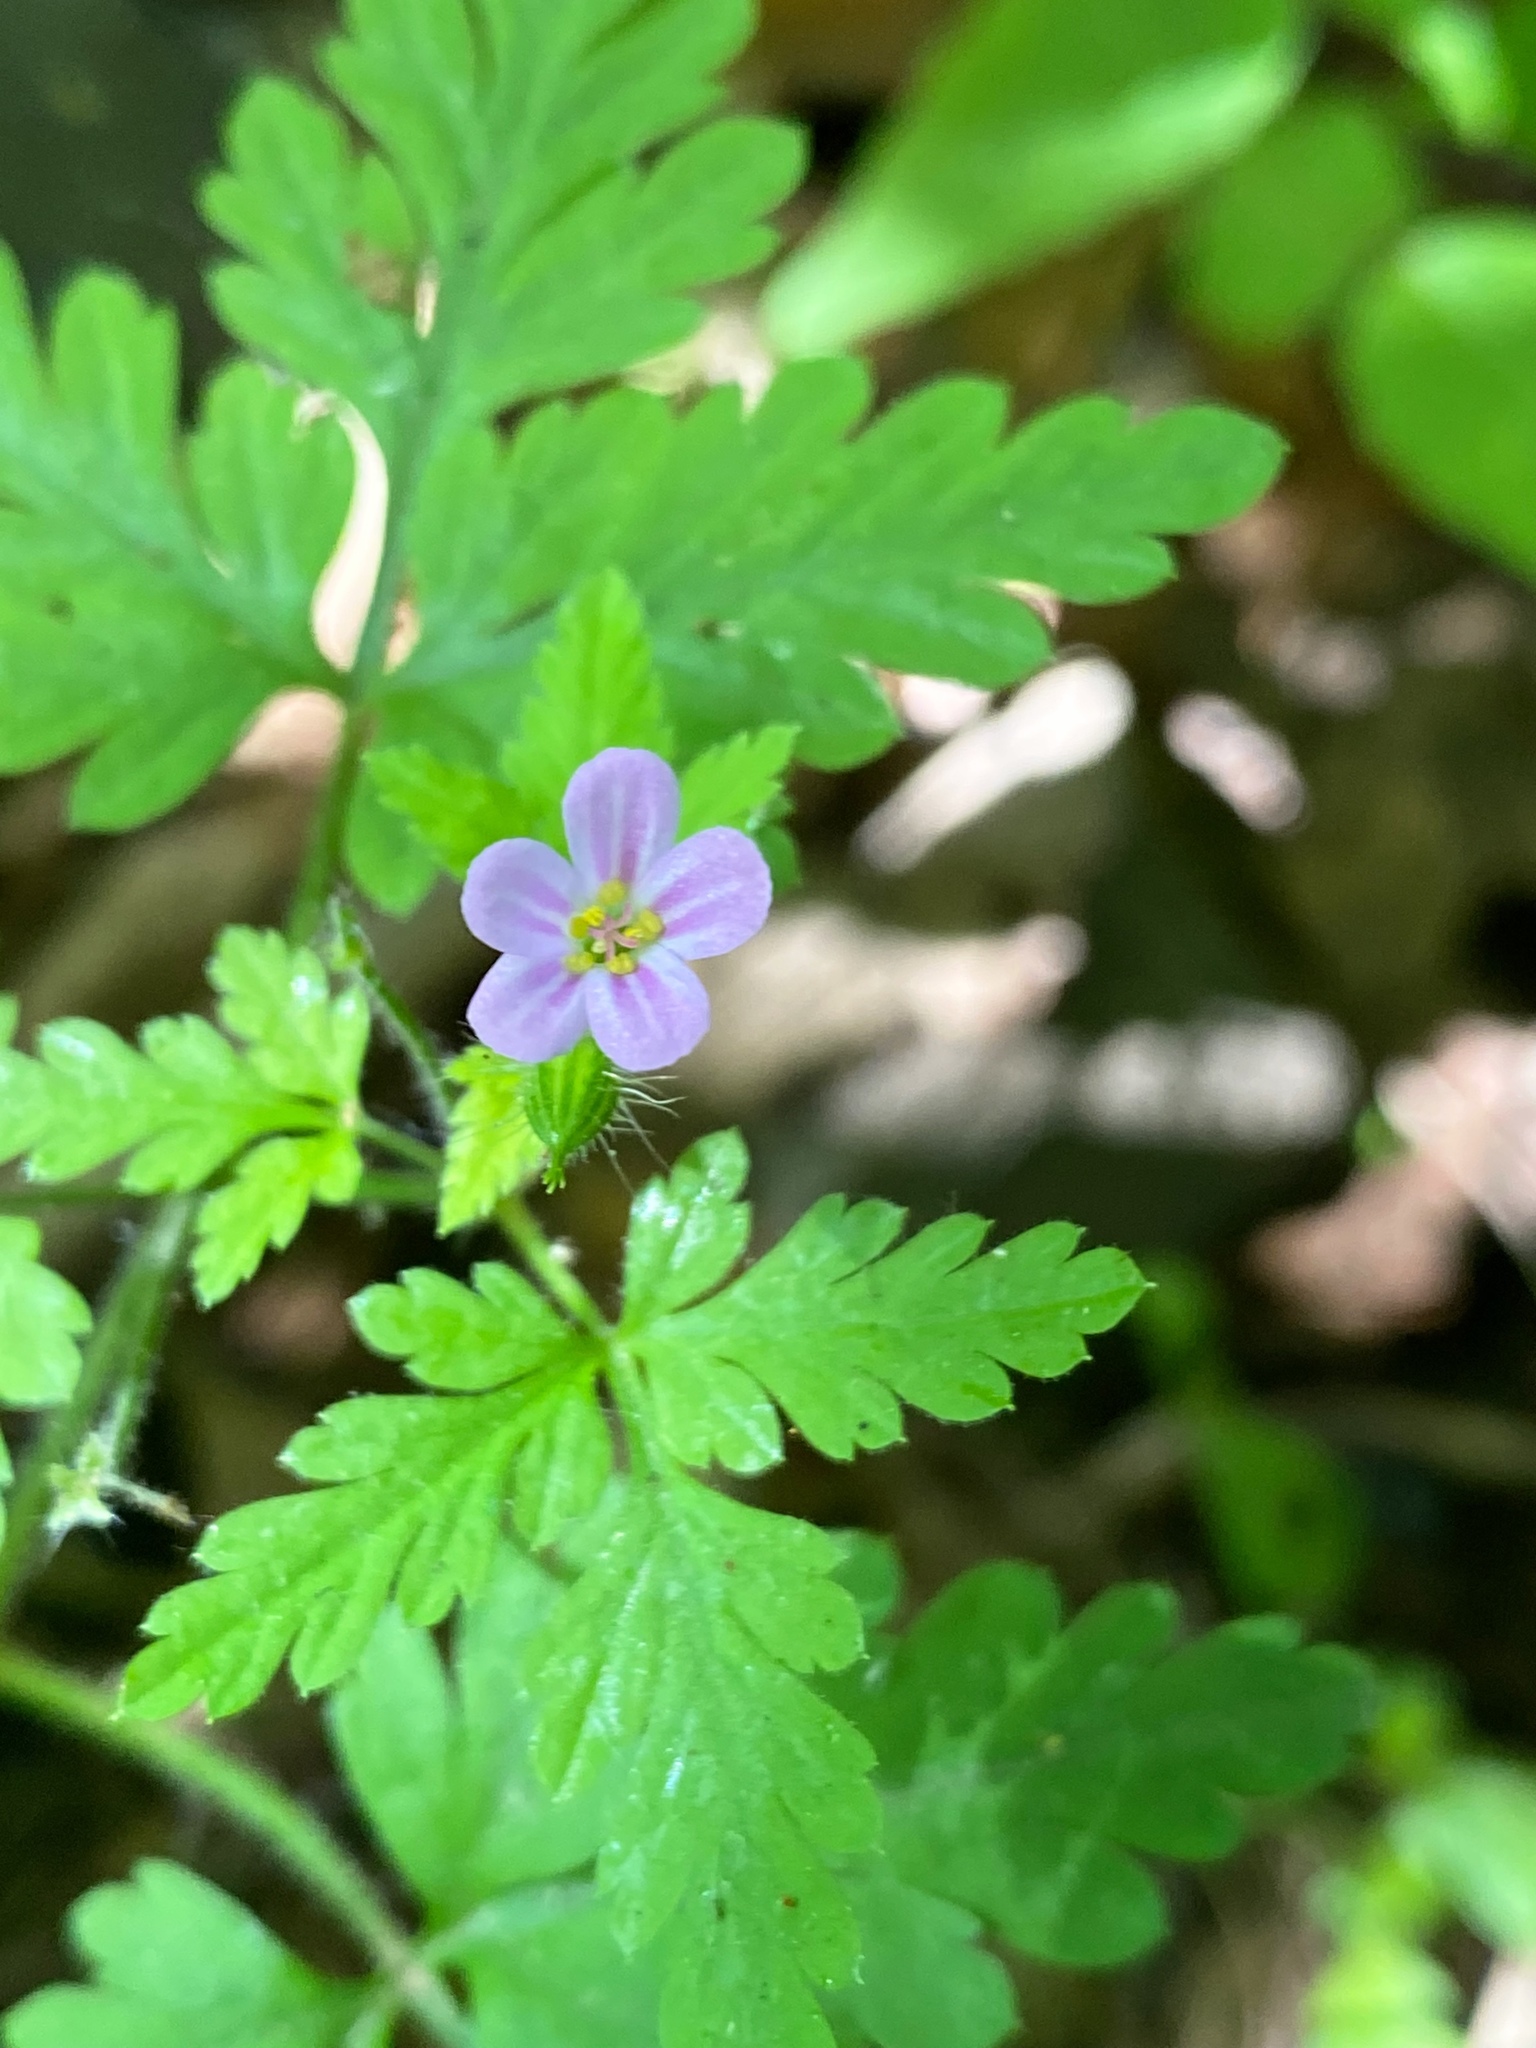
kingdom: Plantae
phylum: Tracheophyta
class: Magnoliopsida
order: Geraniales
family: Geraniaceae
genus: Geranium
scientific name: Geranium robertianum
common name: Herb-robert
